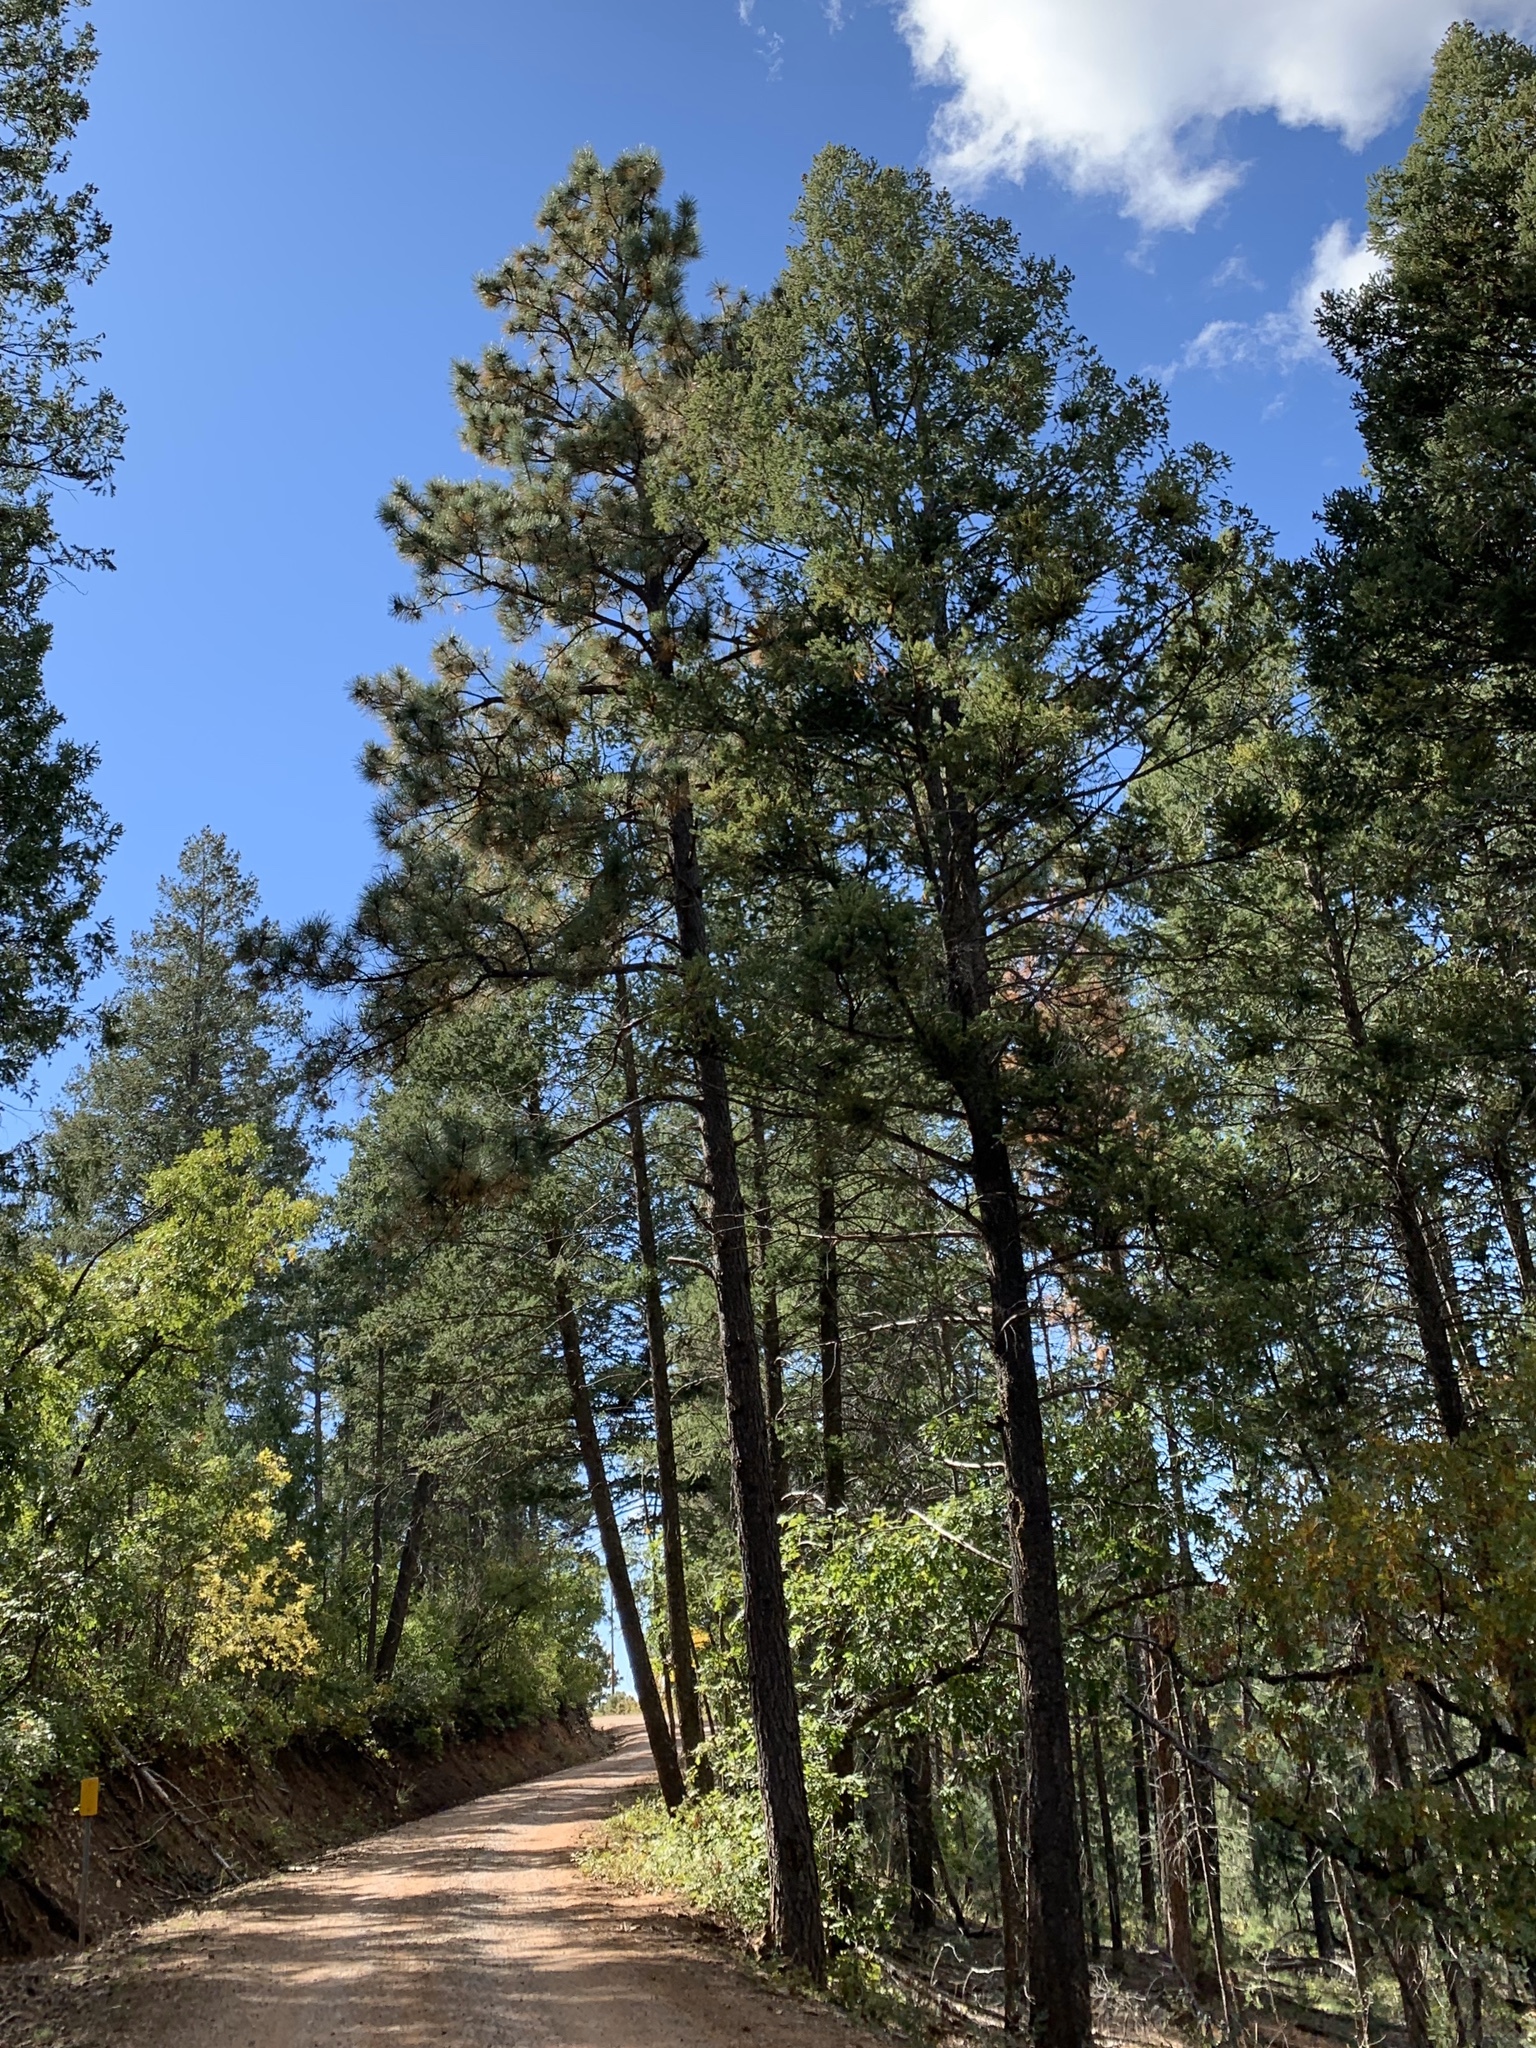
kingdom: Plantae
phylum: Tracheophyta
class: Pinopsida
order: Pinales
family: Pinaceae
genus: Pinus
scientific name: Pinus ponderosa
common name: Western yellow-pine
